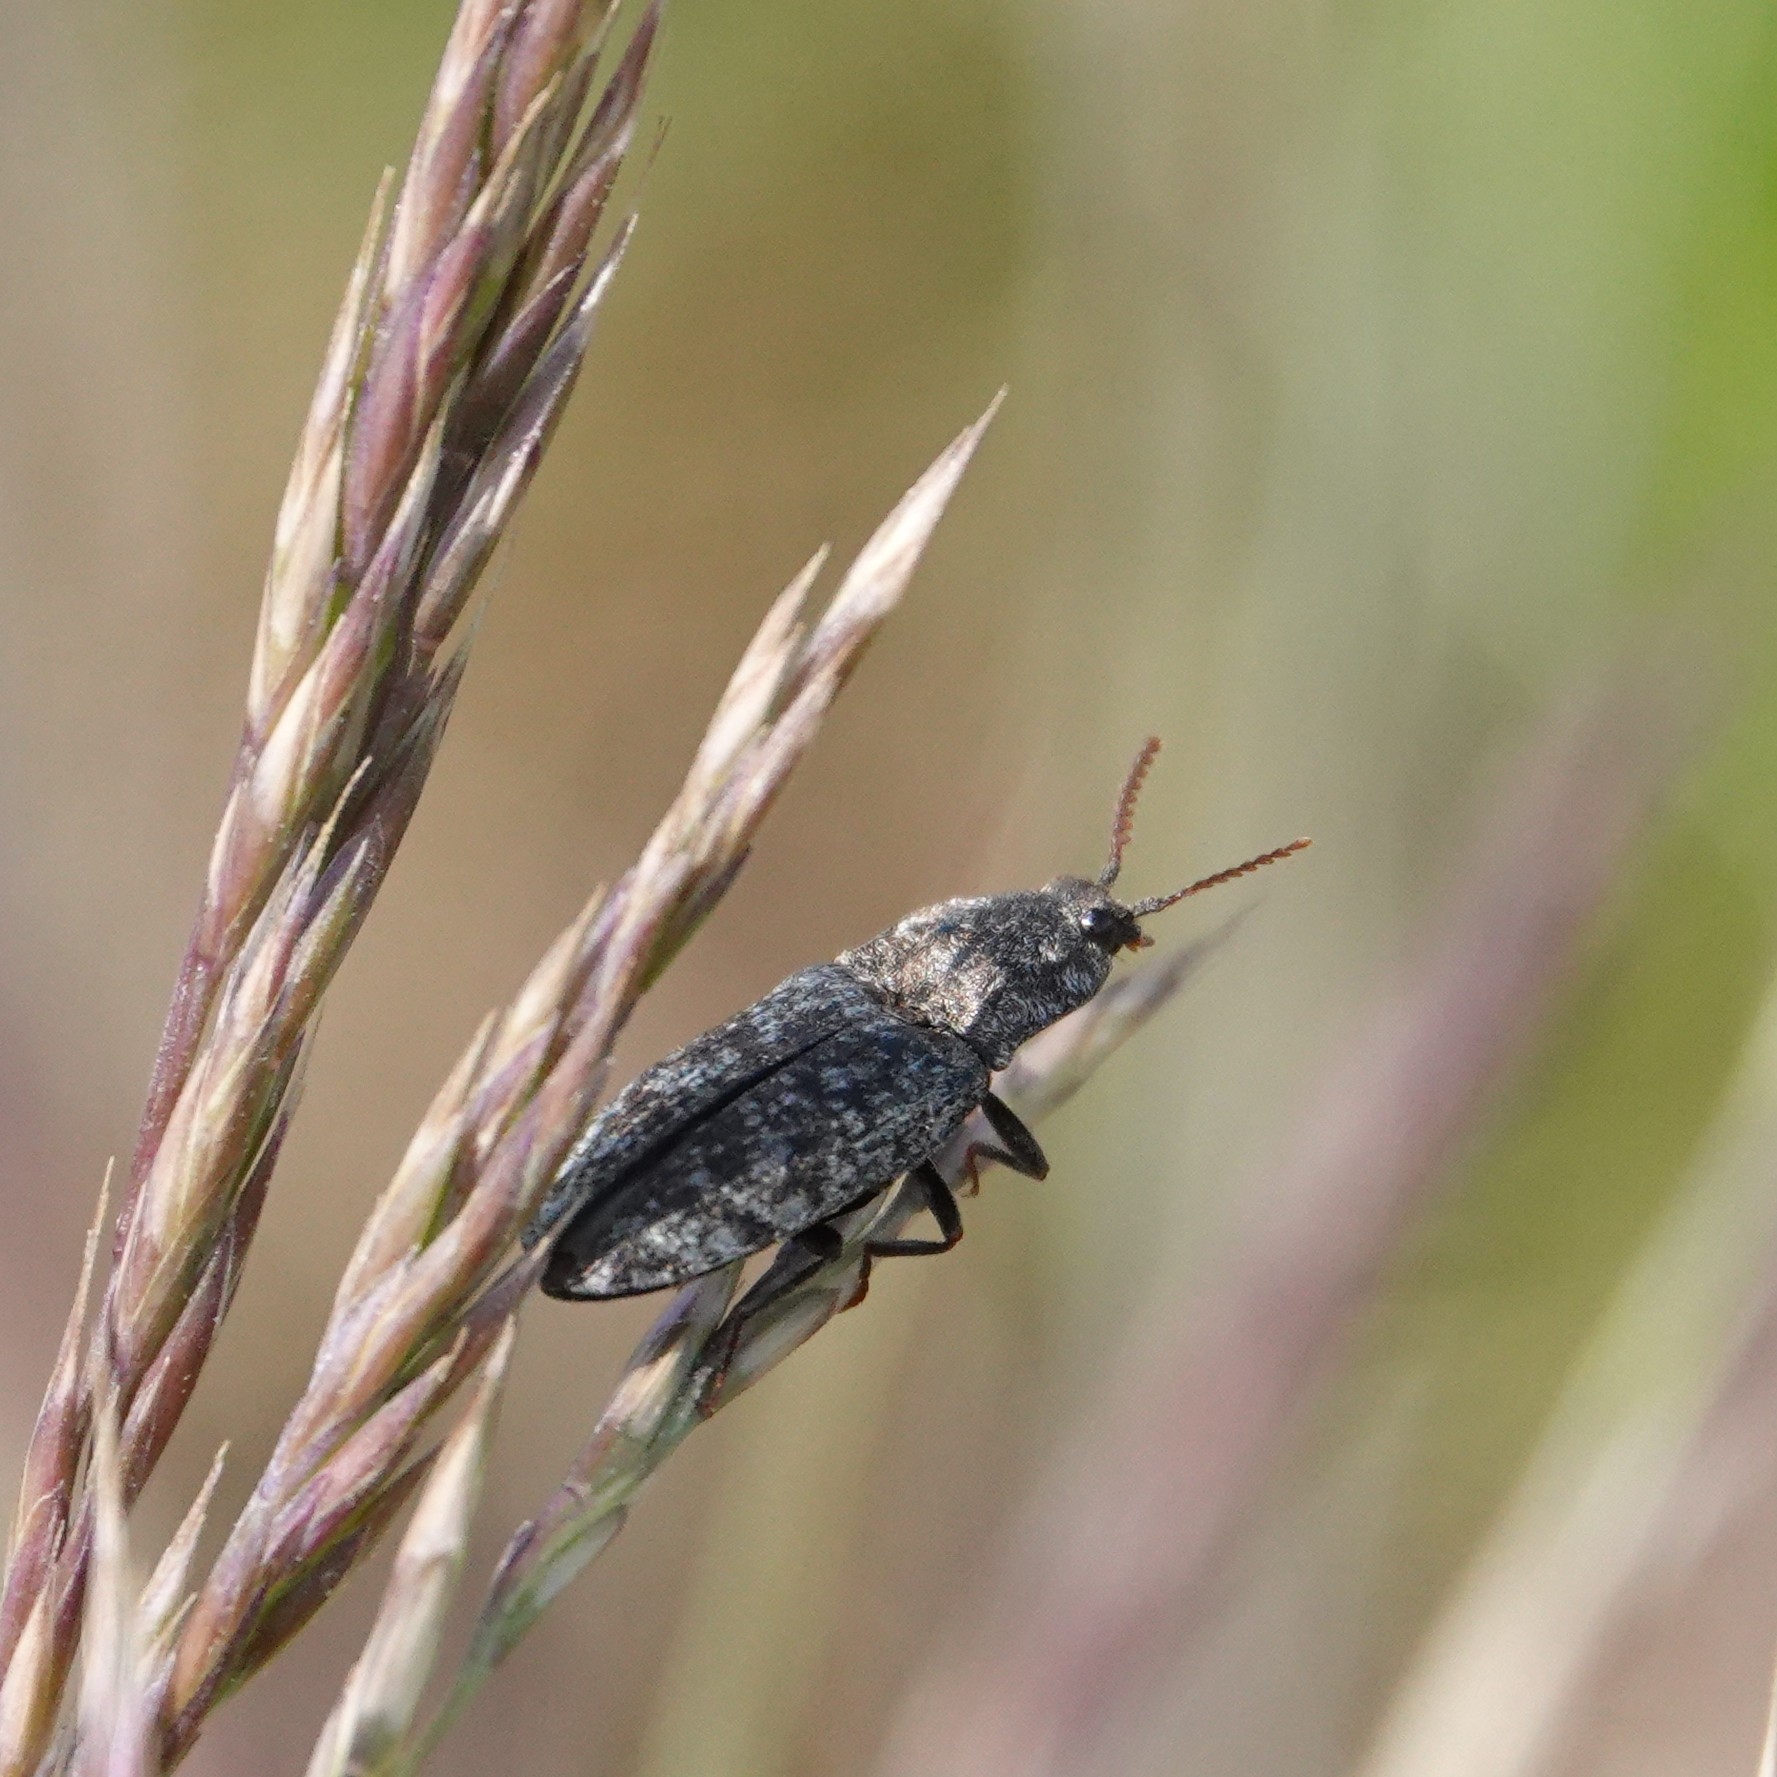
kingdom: Animalia
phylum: Arthropoda
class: Insecta
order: Coleoptera
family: Elateridae
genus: Agrypnus
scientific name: Agrypnus murinus
